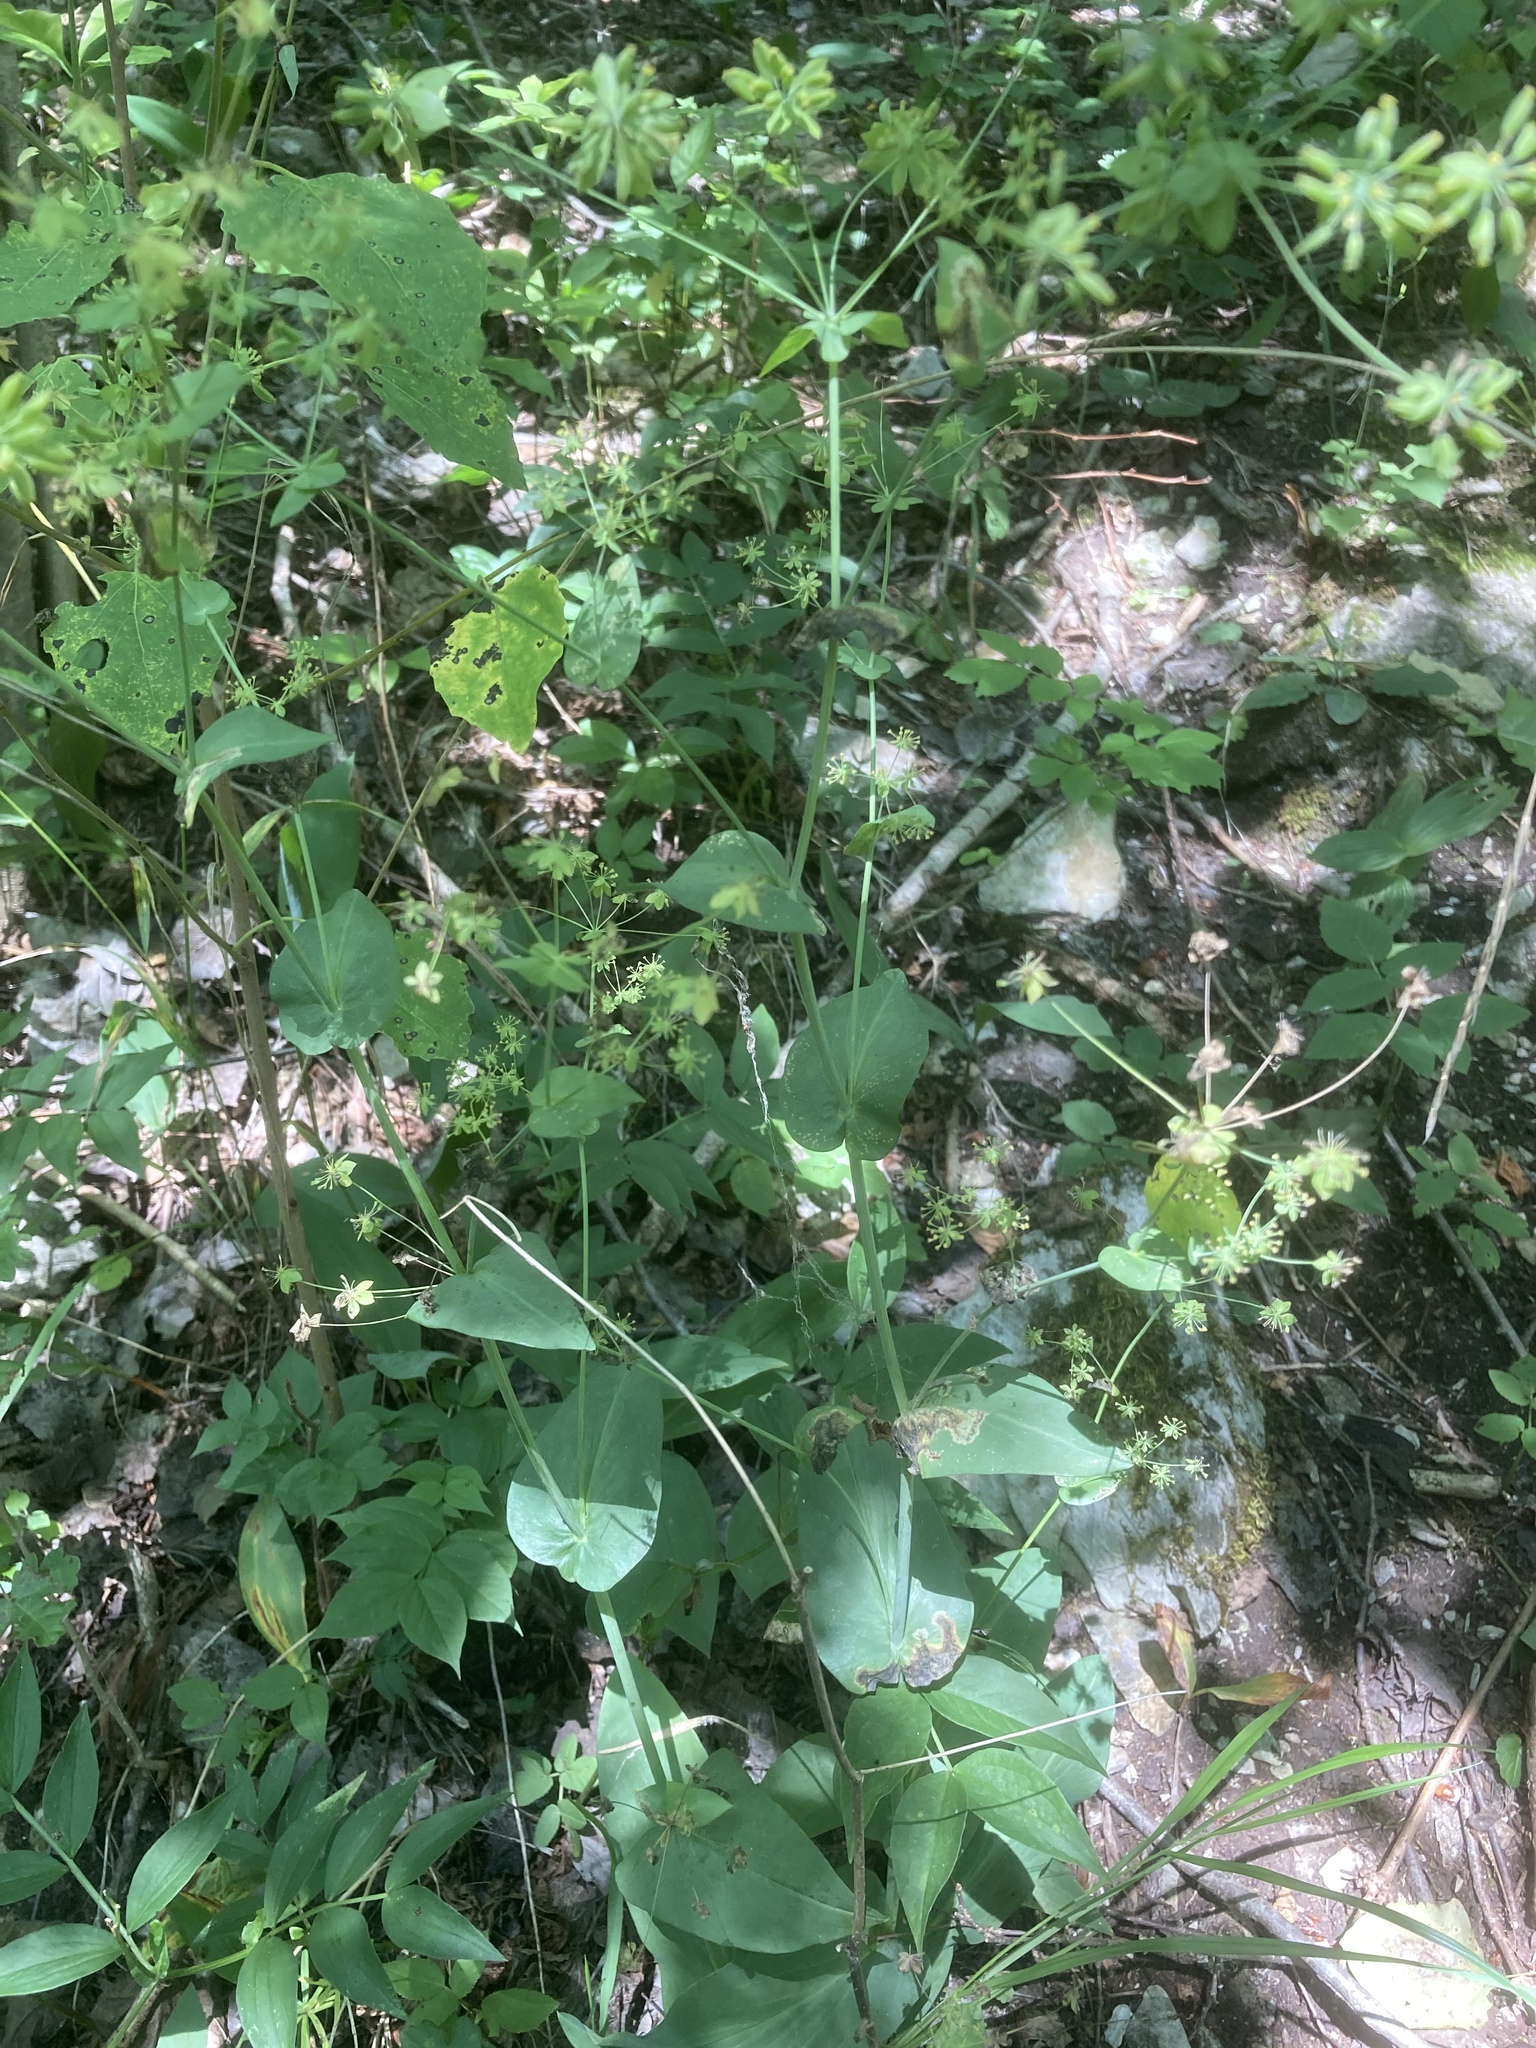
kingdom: Plantae
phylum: Tracheophyta
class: Magnoliopsida
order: Apiales
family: Apiaceae
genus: Bupleurum
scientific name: Bupleurum longifolium
